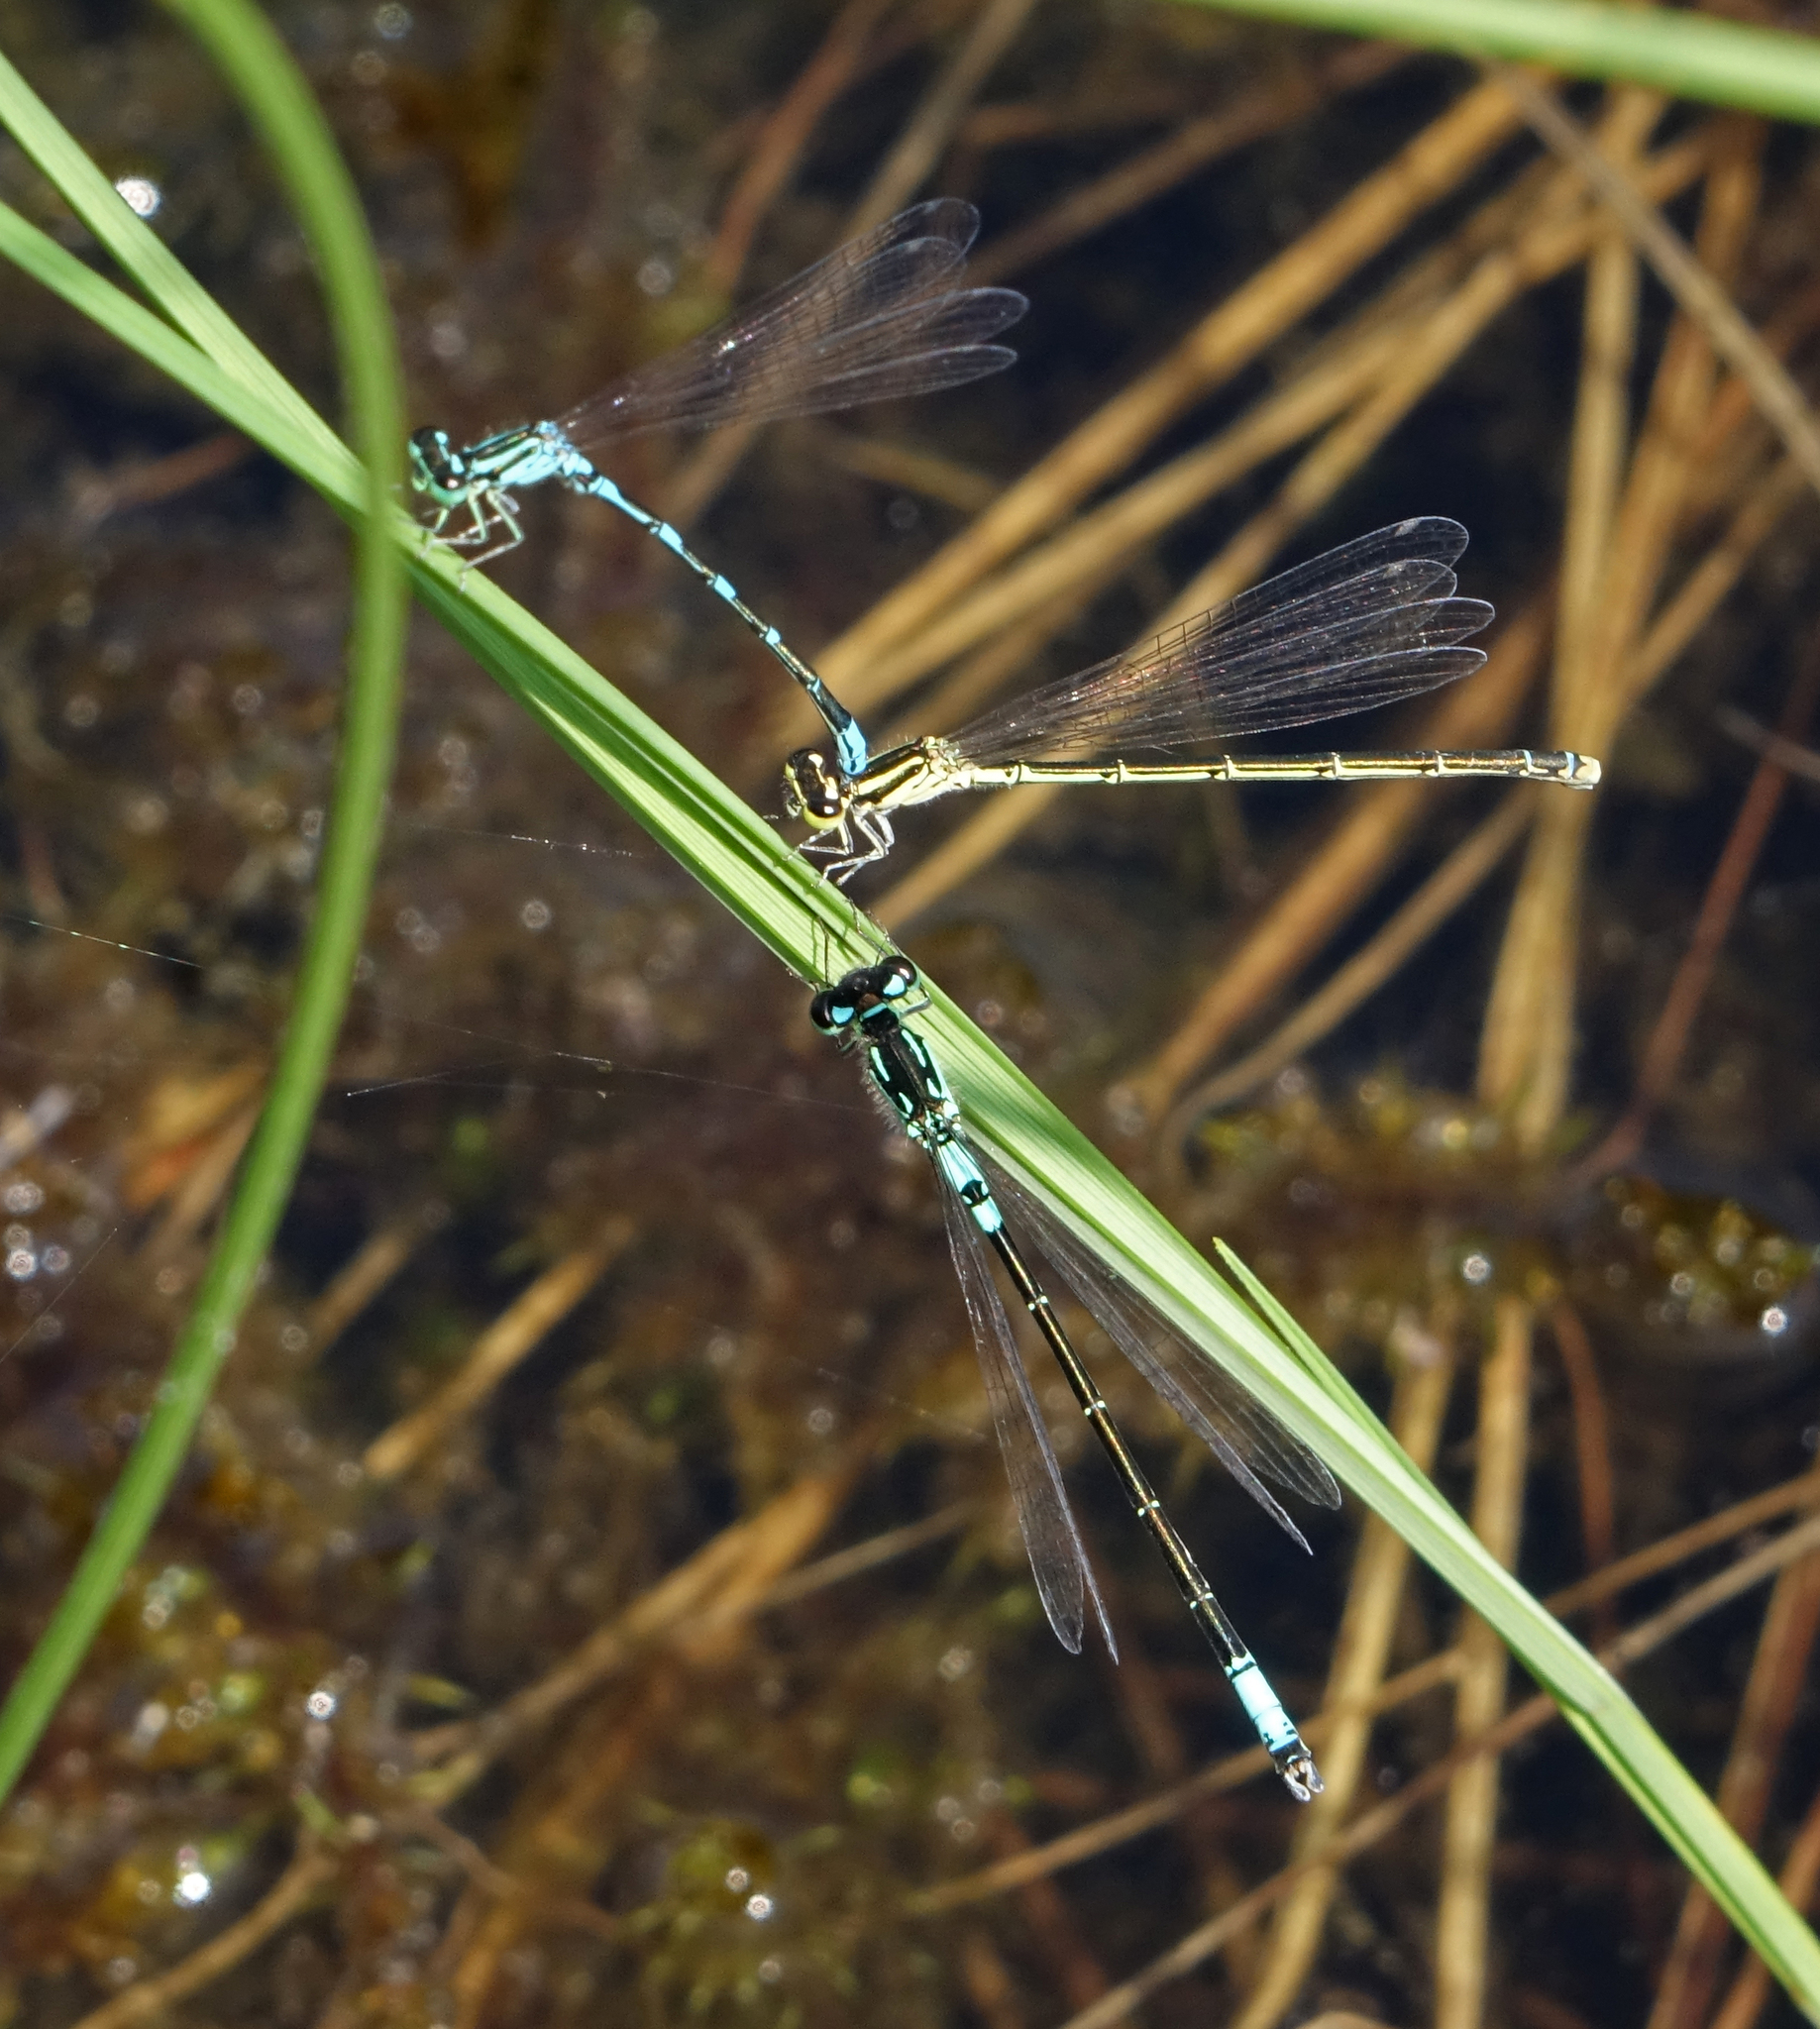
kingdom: Animalia
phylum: Arthropoda
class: Insecta
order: Odonata
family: Coenagrionidae
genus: Coenagrion
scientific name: Coenagrion armatum
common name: Dark bluet
